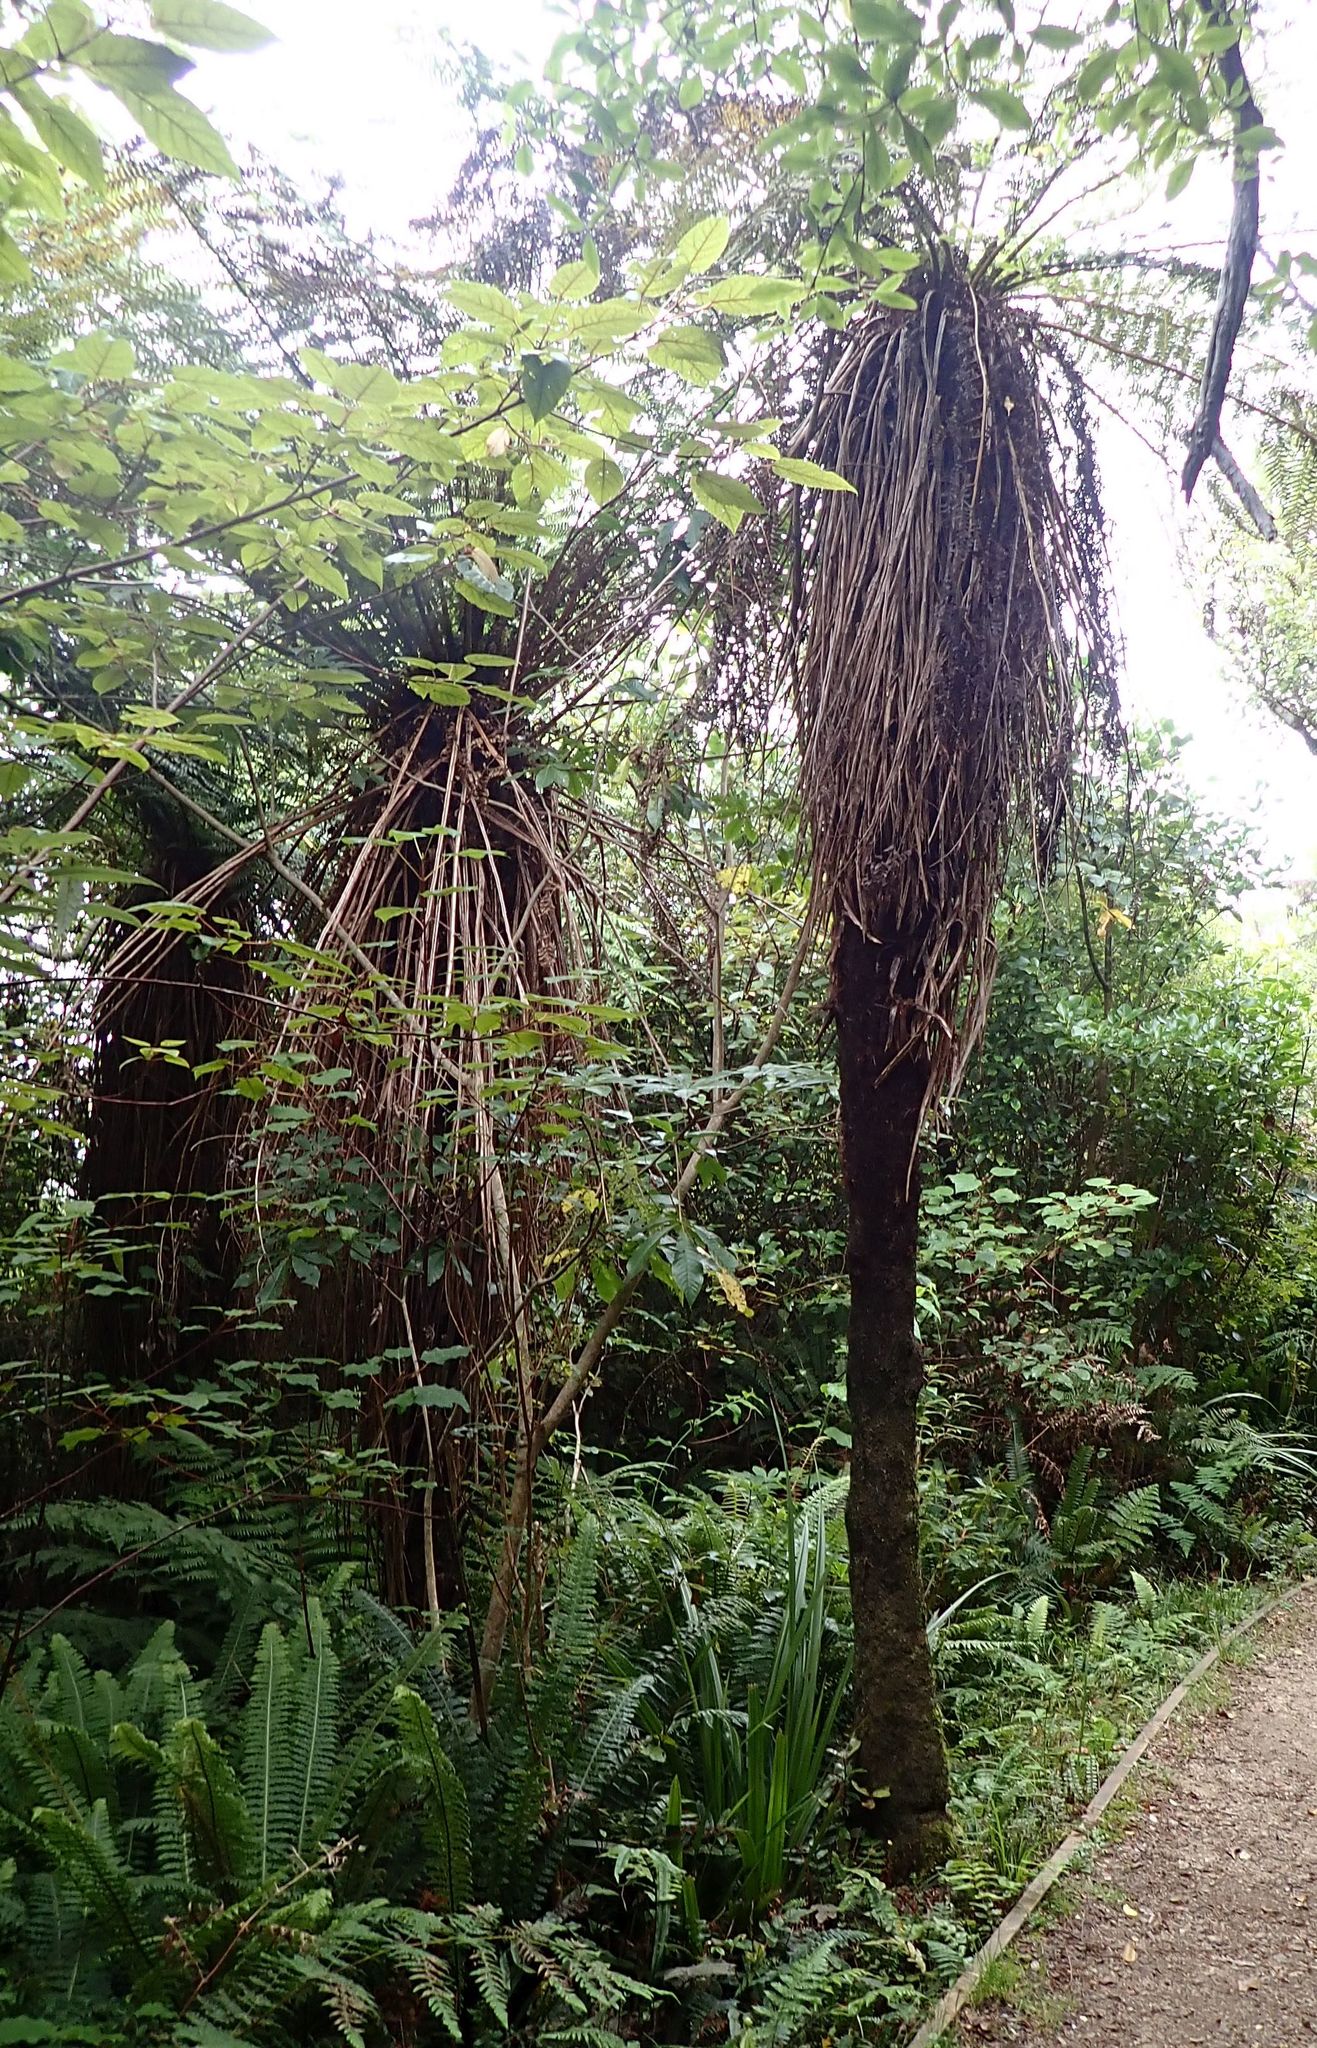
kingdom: Plantae
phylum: Tracheophyta
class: Polypodiopsida
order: Cyatheales
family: Cyatheaceae
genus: Alsophila
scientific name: Alsophila smithii
